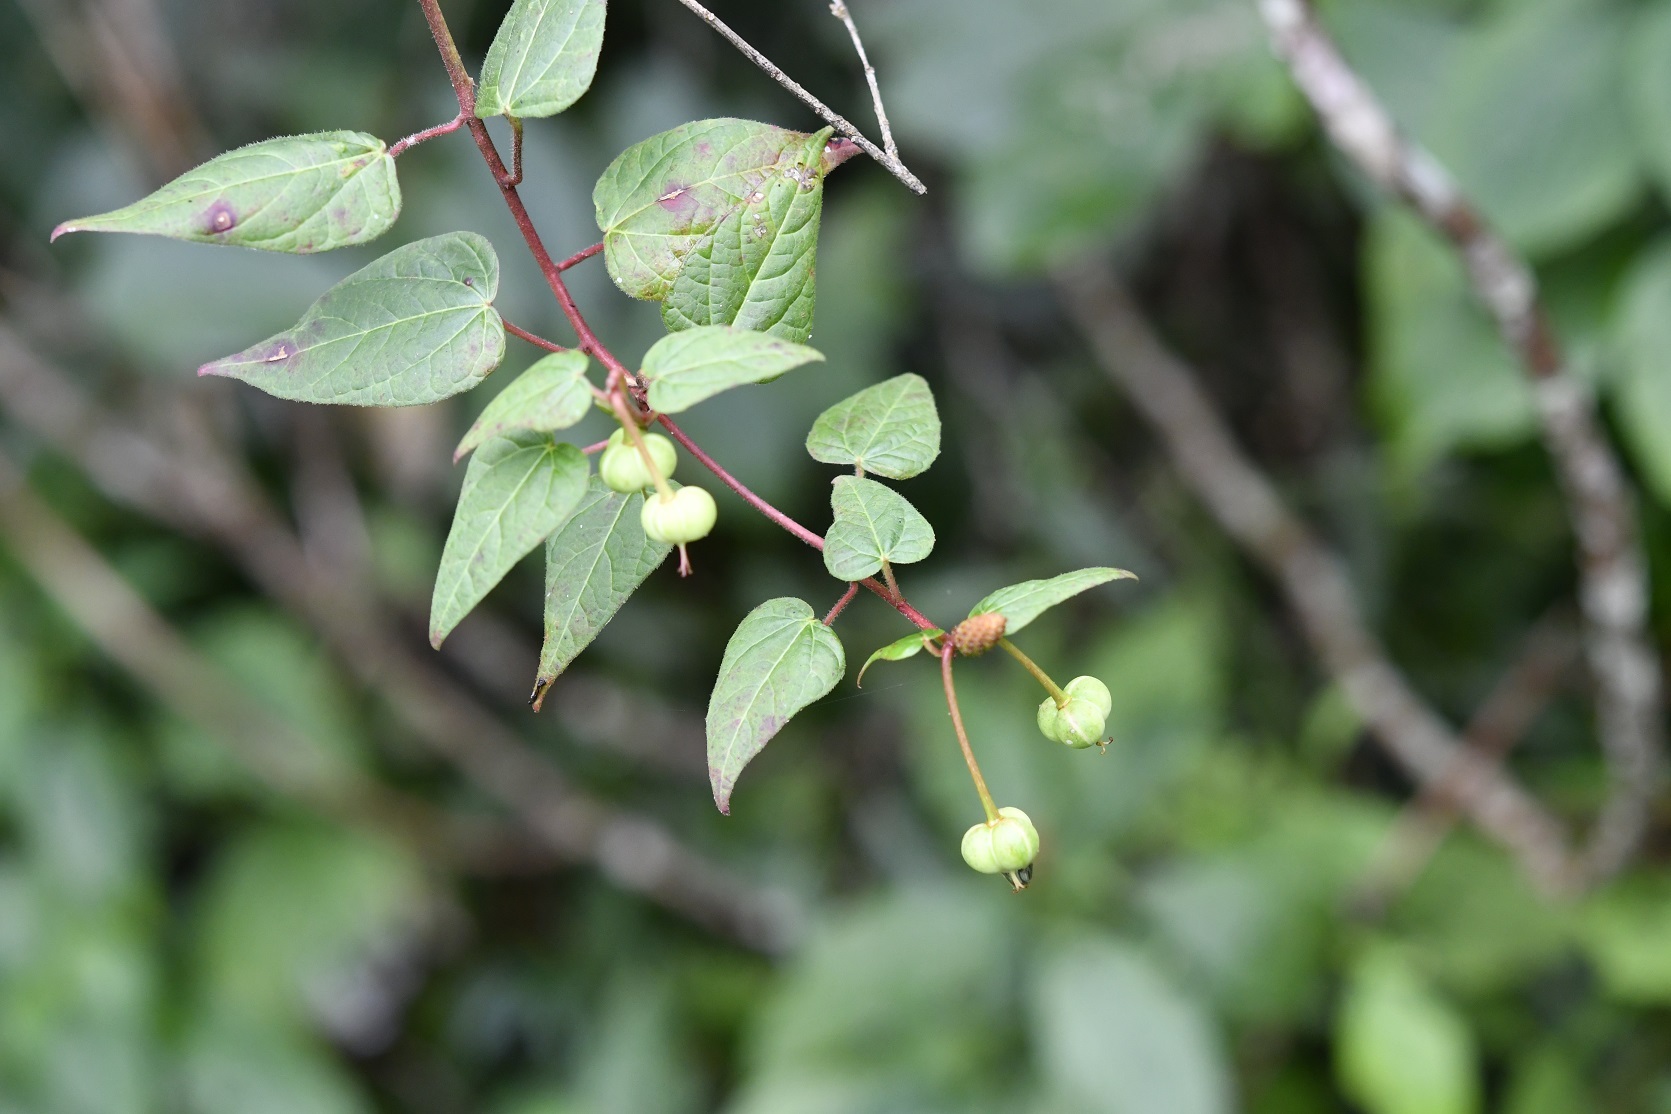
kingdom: Plantae
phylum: Tracheophyta
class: Magnoliopsida
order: Malpighiales
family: Euphorbiaceae
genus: Dalembertia
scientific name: Dalembertia triangularis
